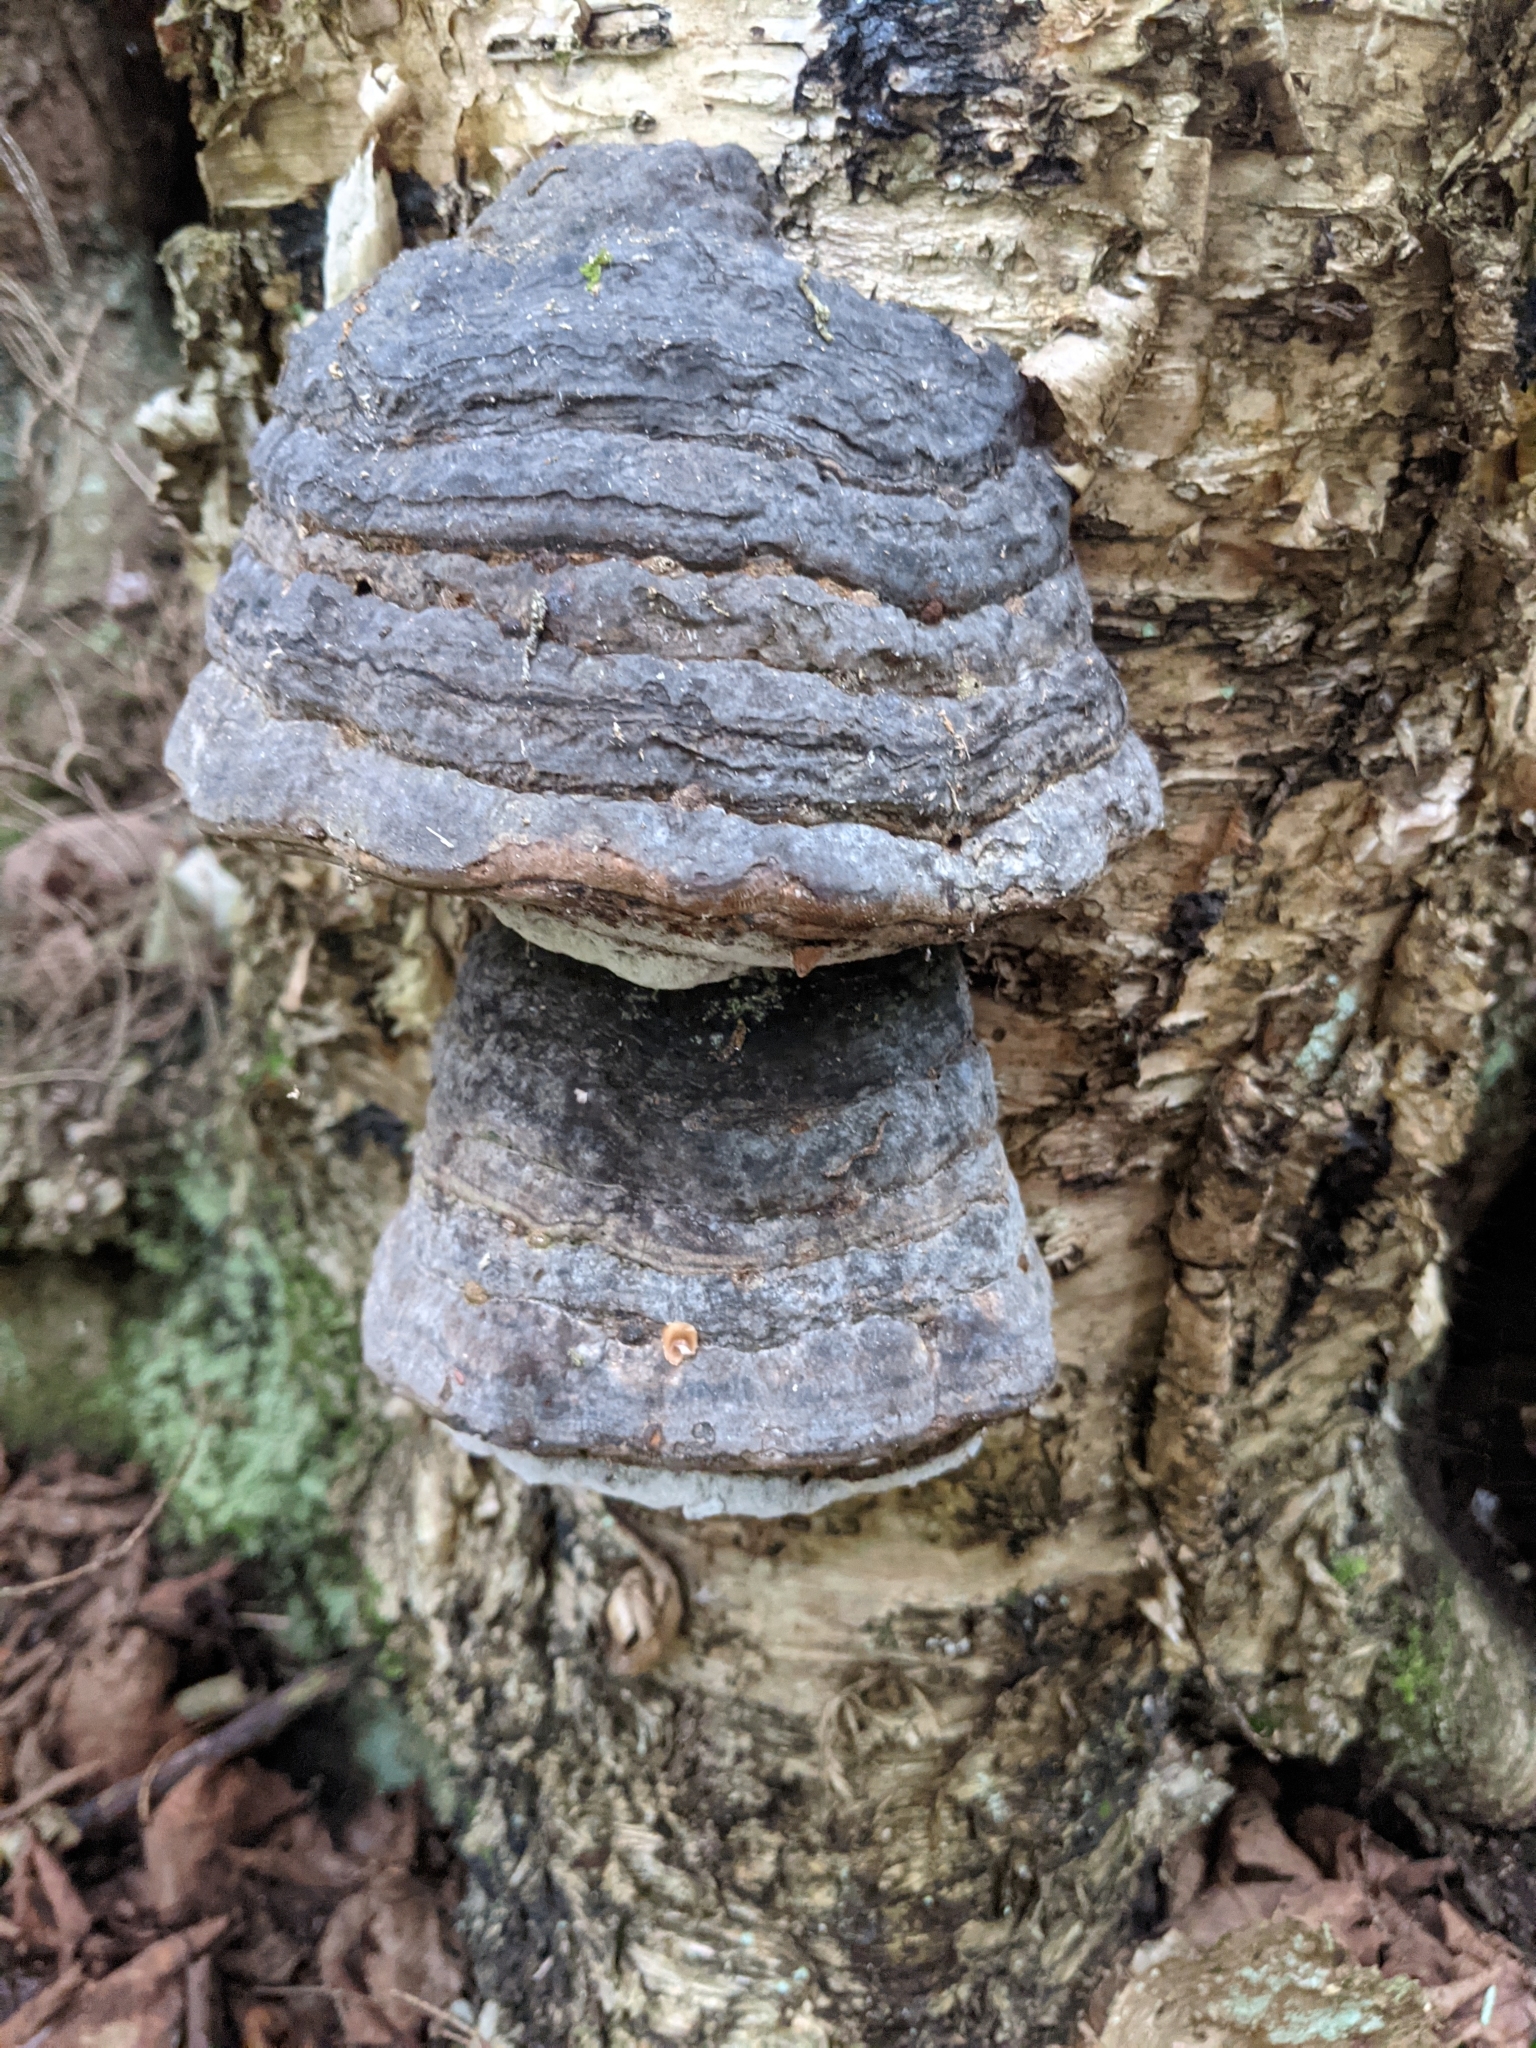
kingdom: Fungi
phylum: Basidiomycota
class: Agaricomycetes
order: Polyporales
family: Polyporaceae
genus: Fomes
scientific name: Fomes fomentarius
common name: Hoof fungus
